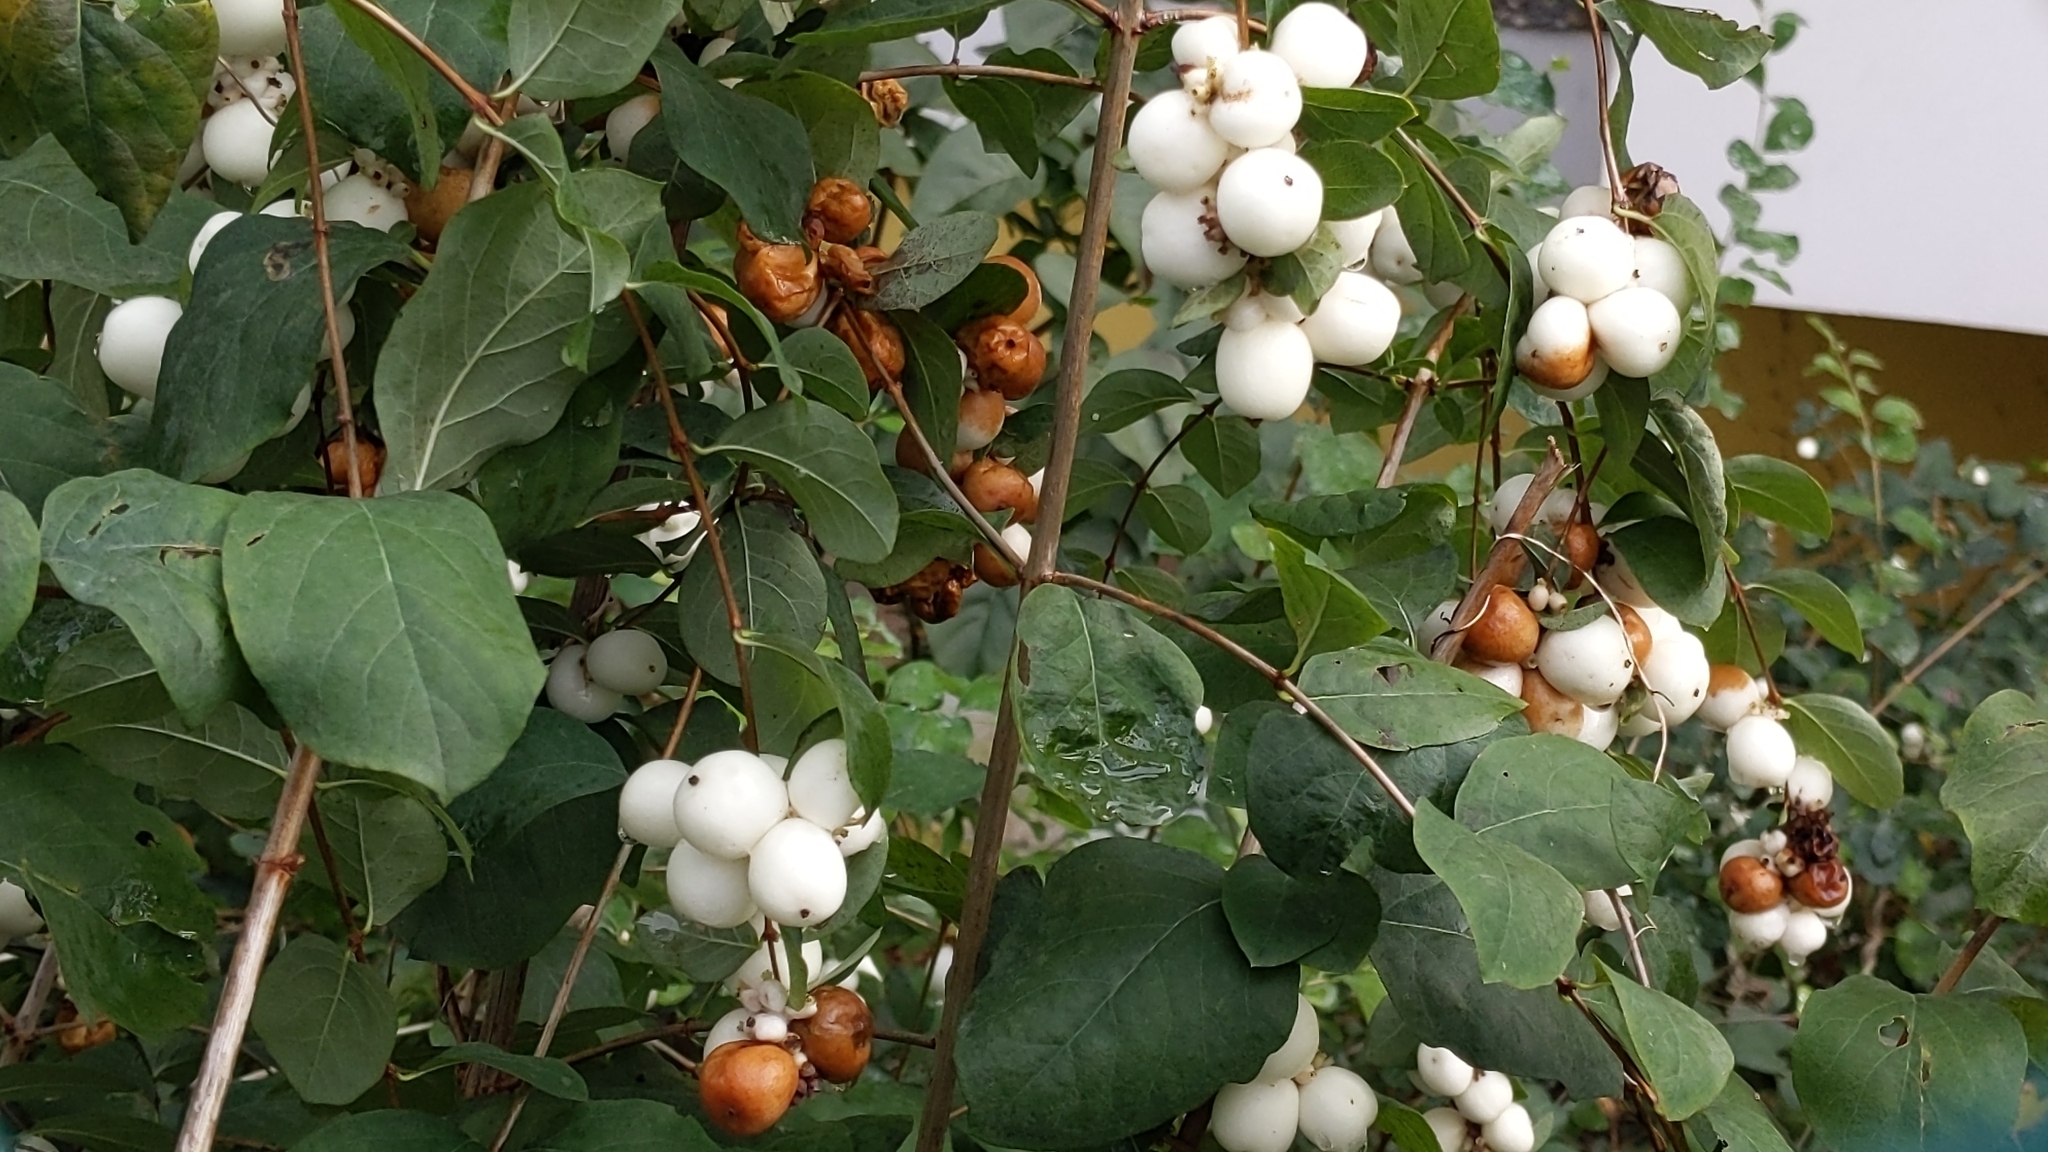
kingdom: Plantae
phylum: Tracheophyta
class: Magnoliopsida
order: Dipsacales
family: Caprifoliaceae
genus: Symphoricarpos
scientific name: Symphoricarpos albus
